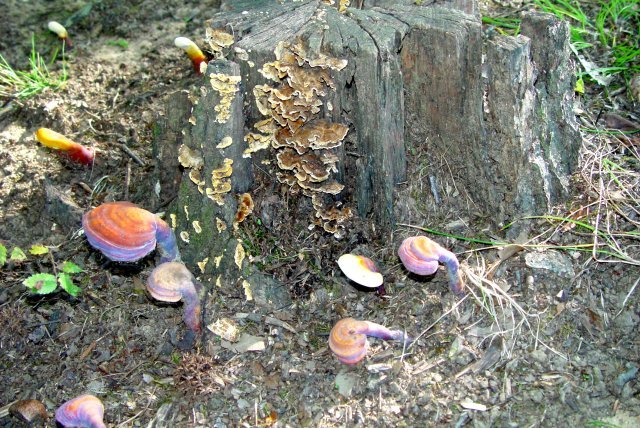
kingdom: Fungi
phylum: Basidiomycota
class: Agaricomycetes
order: Polyporales
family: Polyporaceae
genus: Ganoderma
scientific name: Ganoderma curtisii
